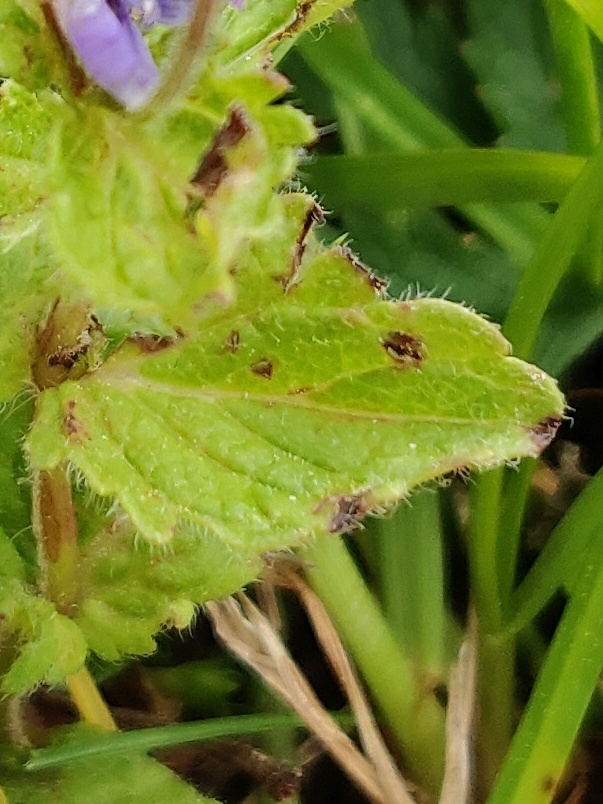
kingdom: Plantae
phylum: Tracheophyta
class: Magnoliopsida
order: Lamiales
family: Plantaginaceae
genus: Veronica
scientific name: Veronica chamaedrys
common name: Germander speedwell
